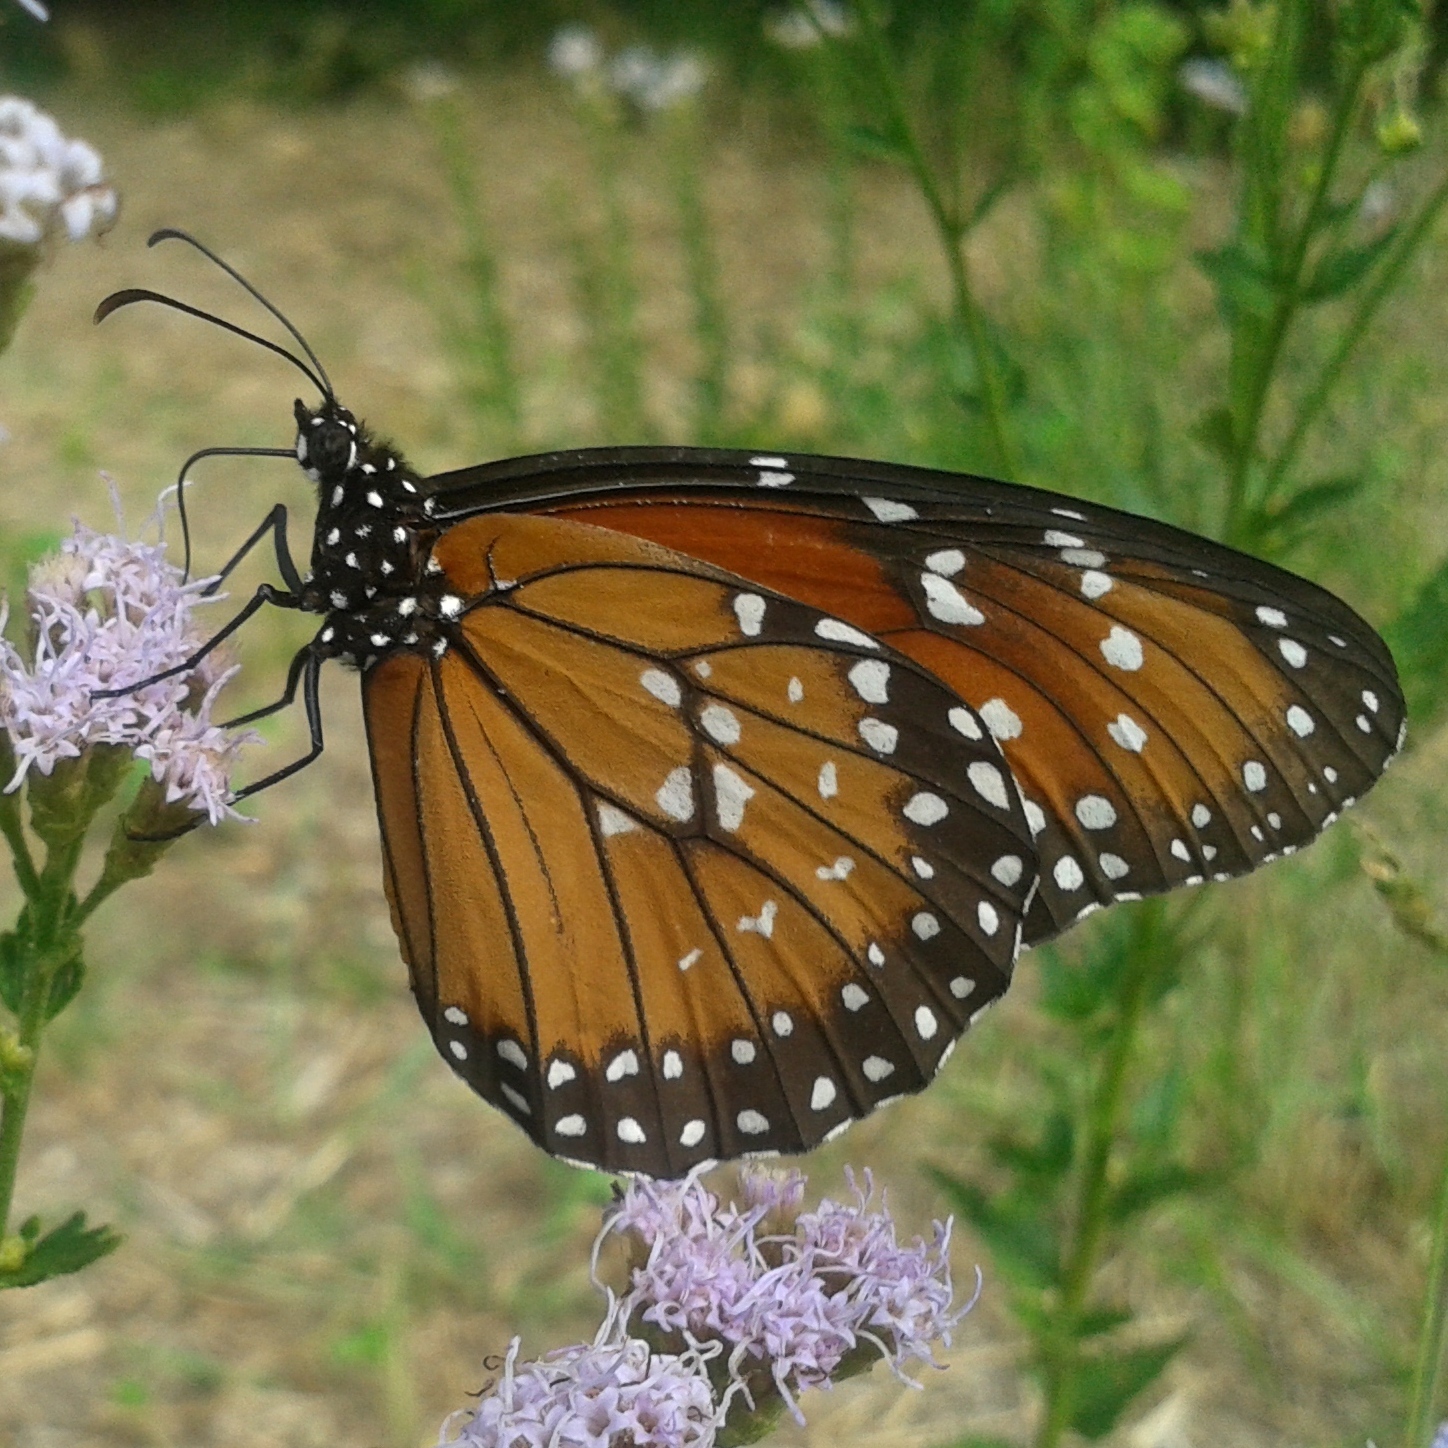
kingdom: Animalia
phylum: Arthropoda
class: Insecta
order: Lepidoptera
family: Nymphalidae
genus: Danaus
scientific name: Danaus eresimus
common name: Soldier
